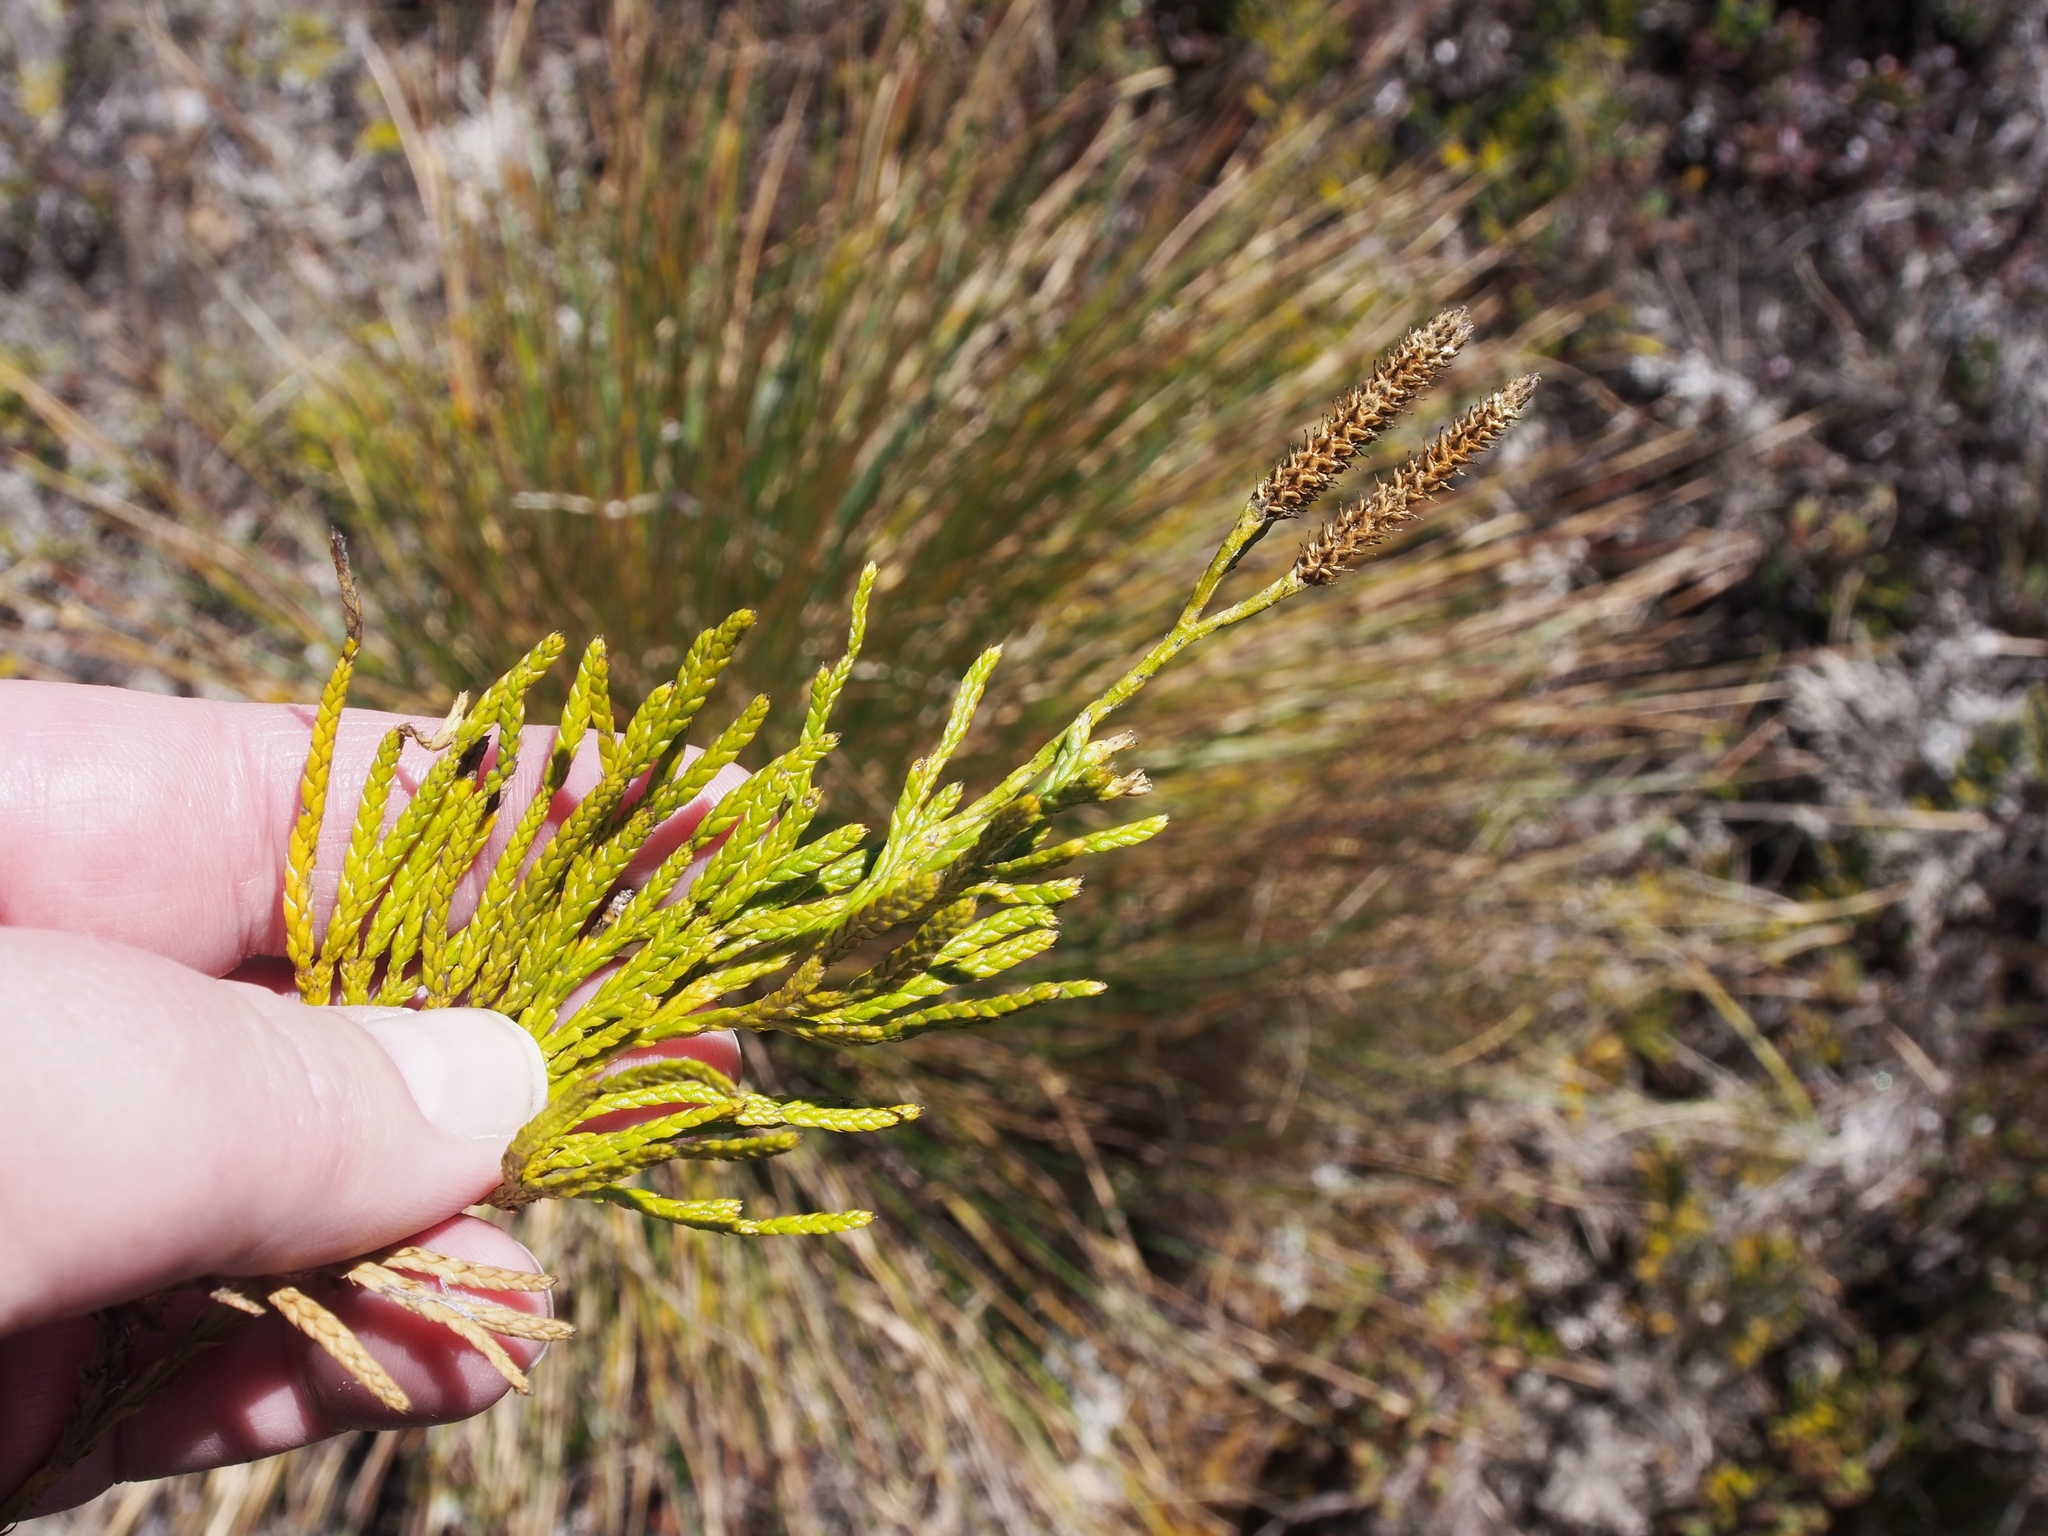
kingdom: Plantae
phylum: Tracheophyta
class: Lycopodiopsida
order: Lycopodiales
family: Lycopodiaceae
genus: Diphasiastrum
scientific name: Diphasiastrum thyoides
